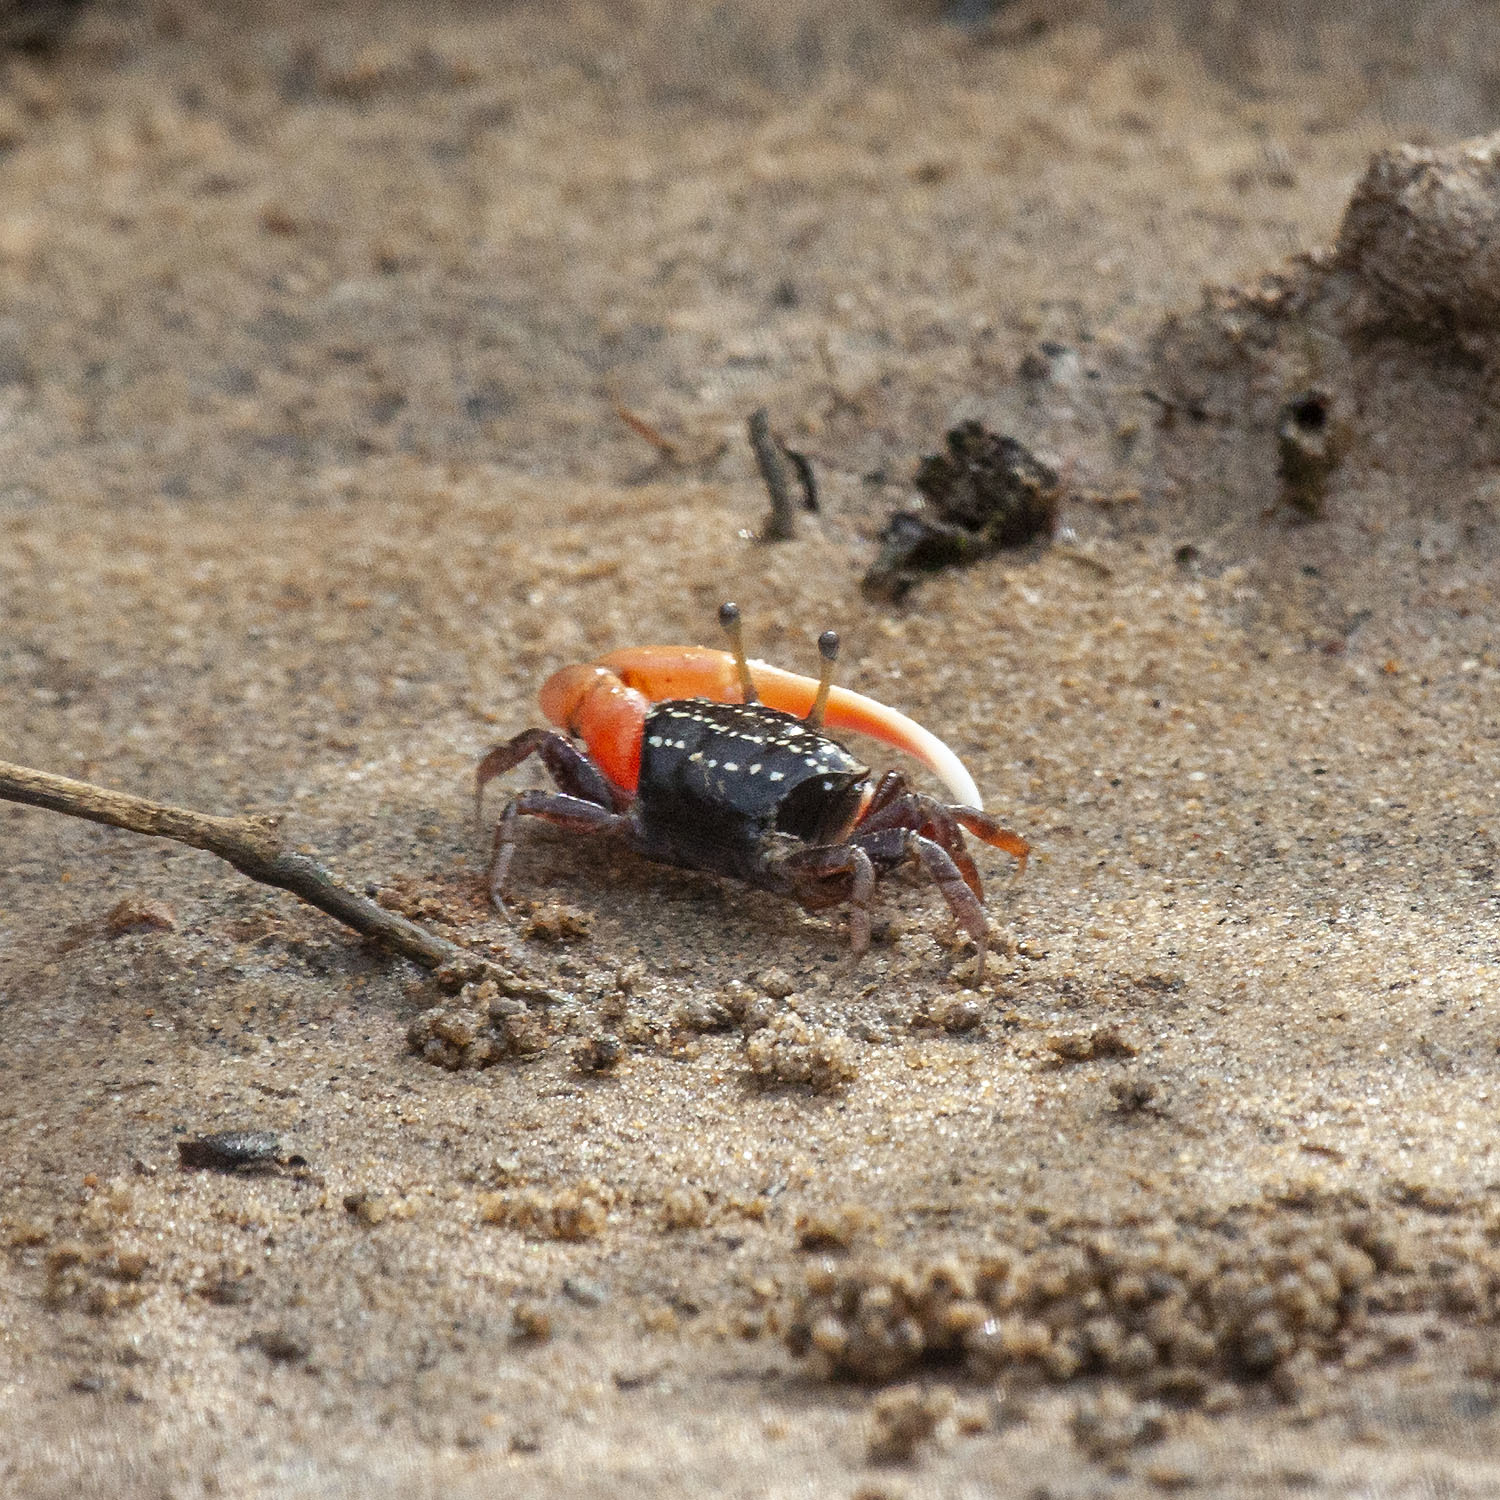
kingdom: Animalia
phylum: Arthropoda
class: Malacostraca
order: Decapoda
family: Ocypodidae
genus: Austruca
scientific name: Austruca annulipes
